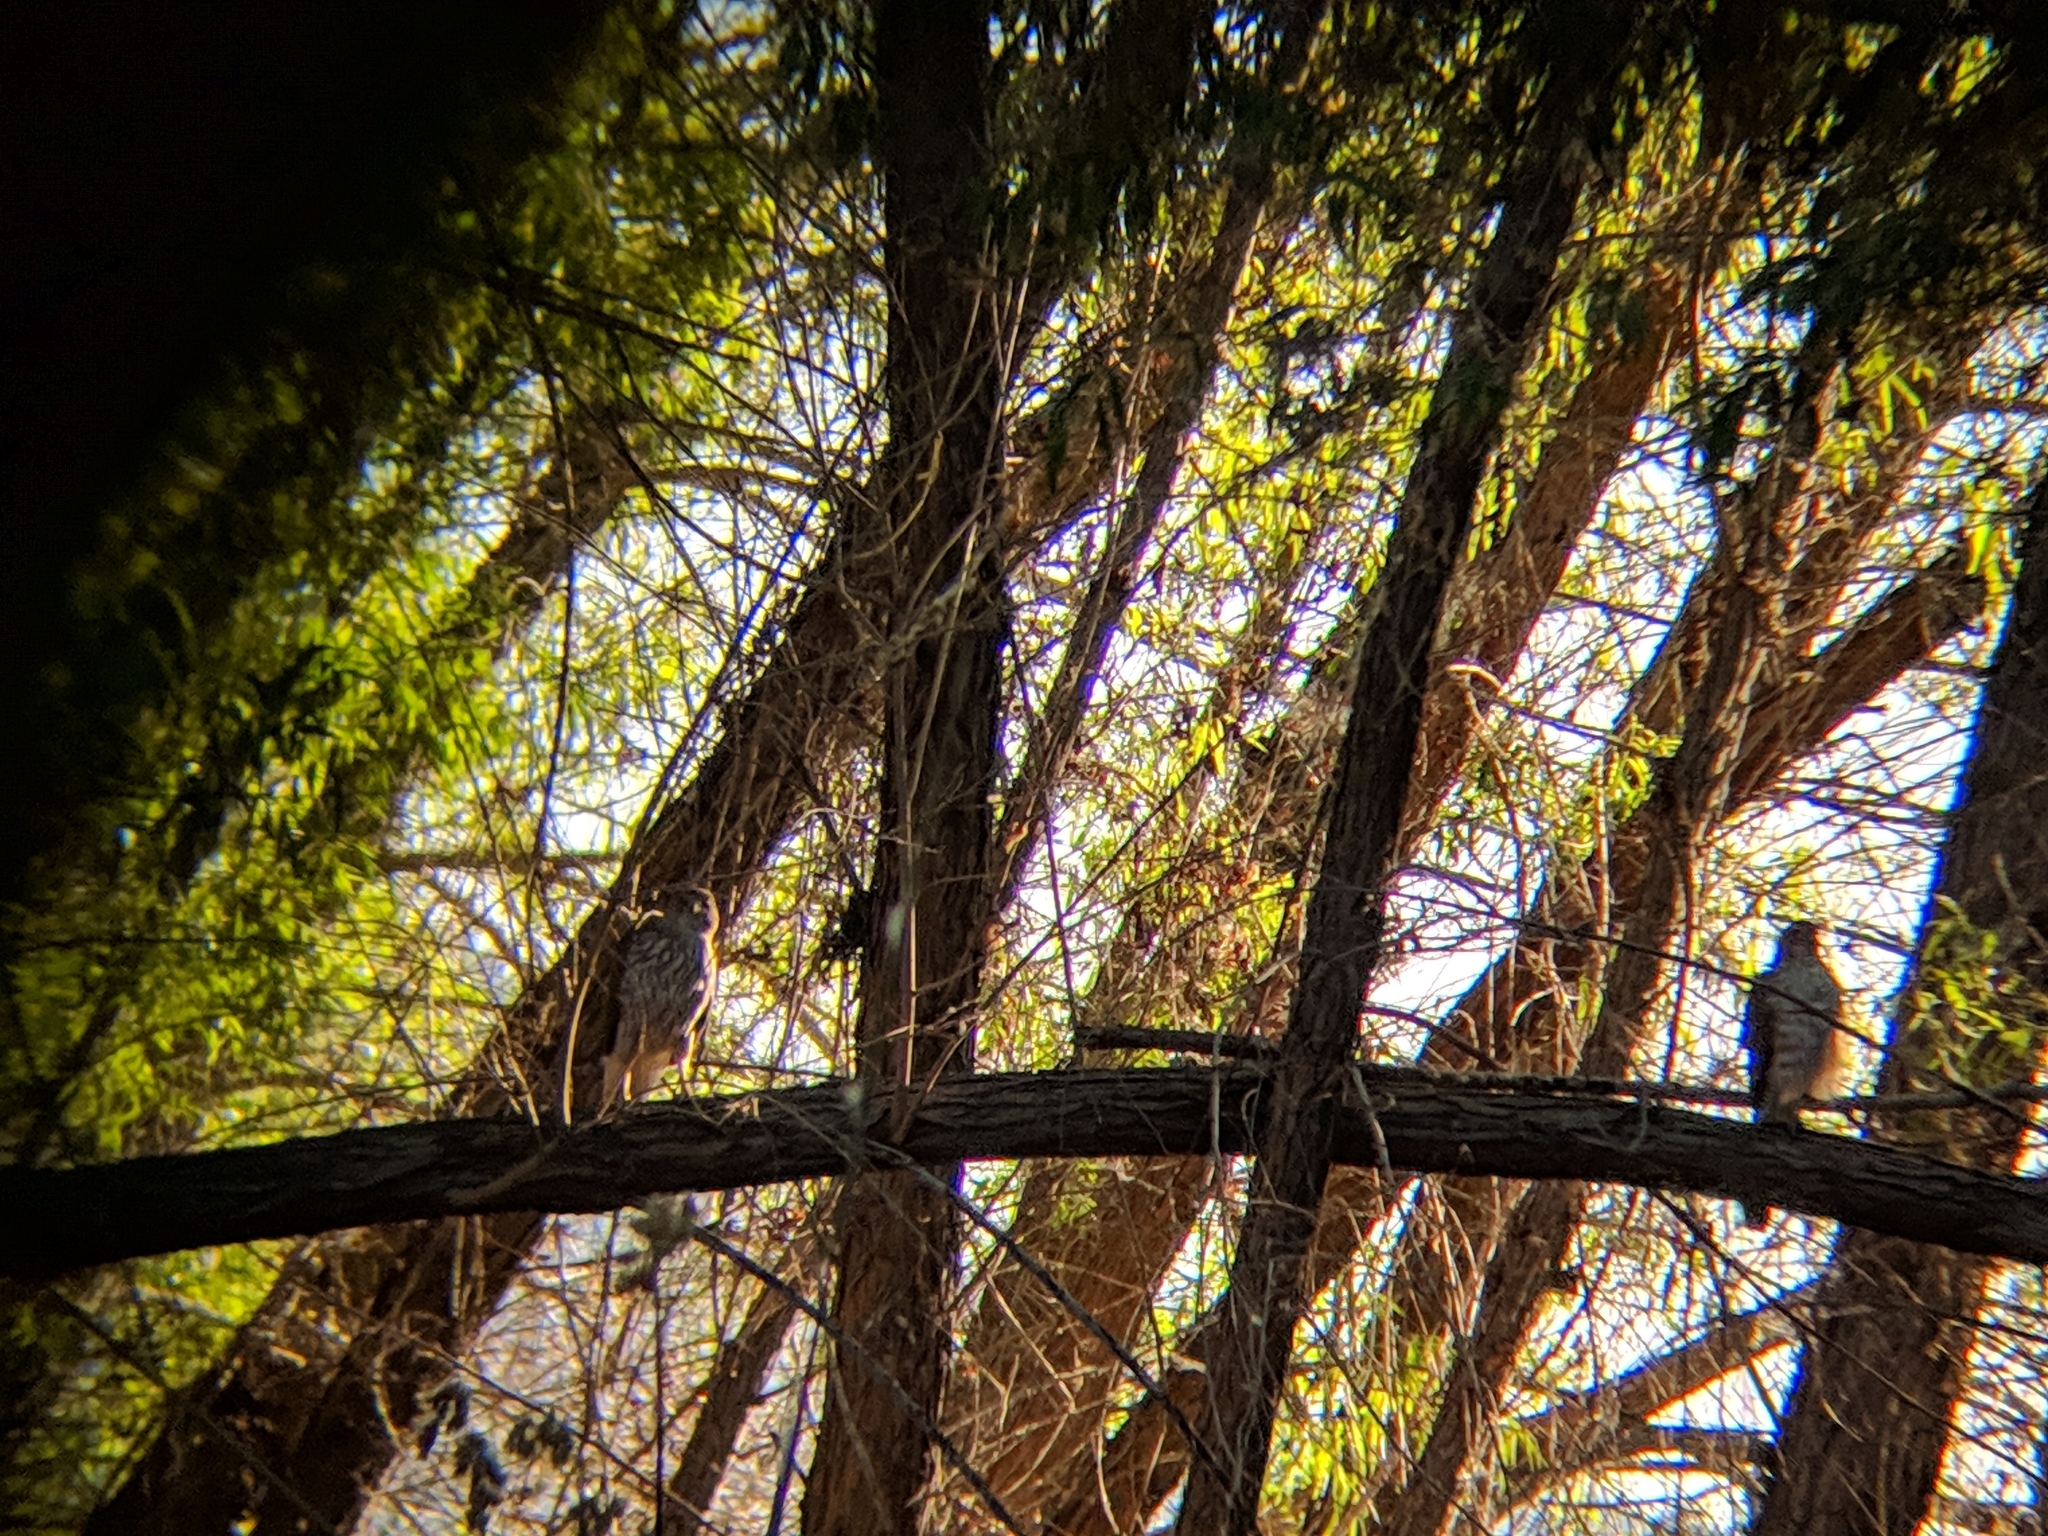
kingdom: Animalia
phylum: Chordata
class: Aves
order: Accipitriformes
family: Accipitridae
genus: Accipiter
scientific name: Accipiter
